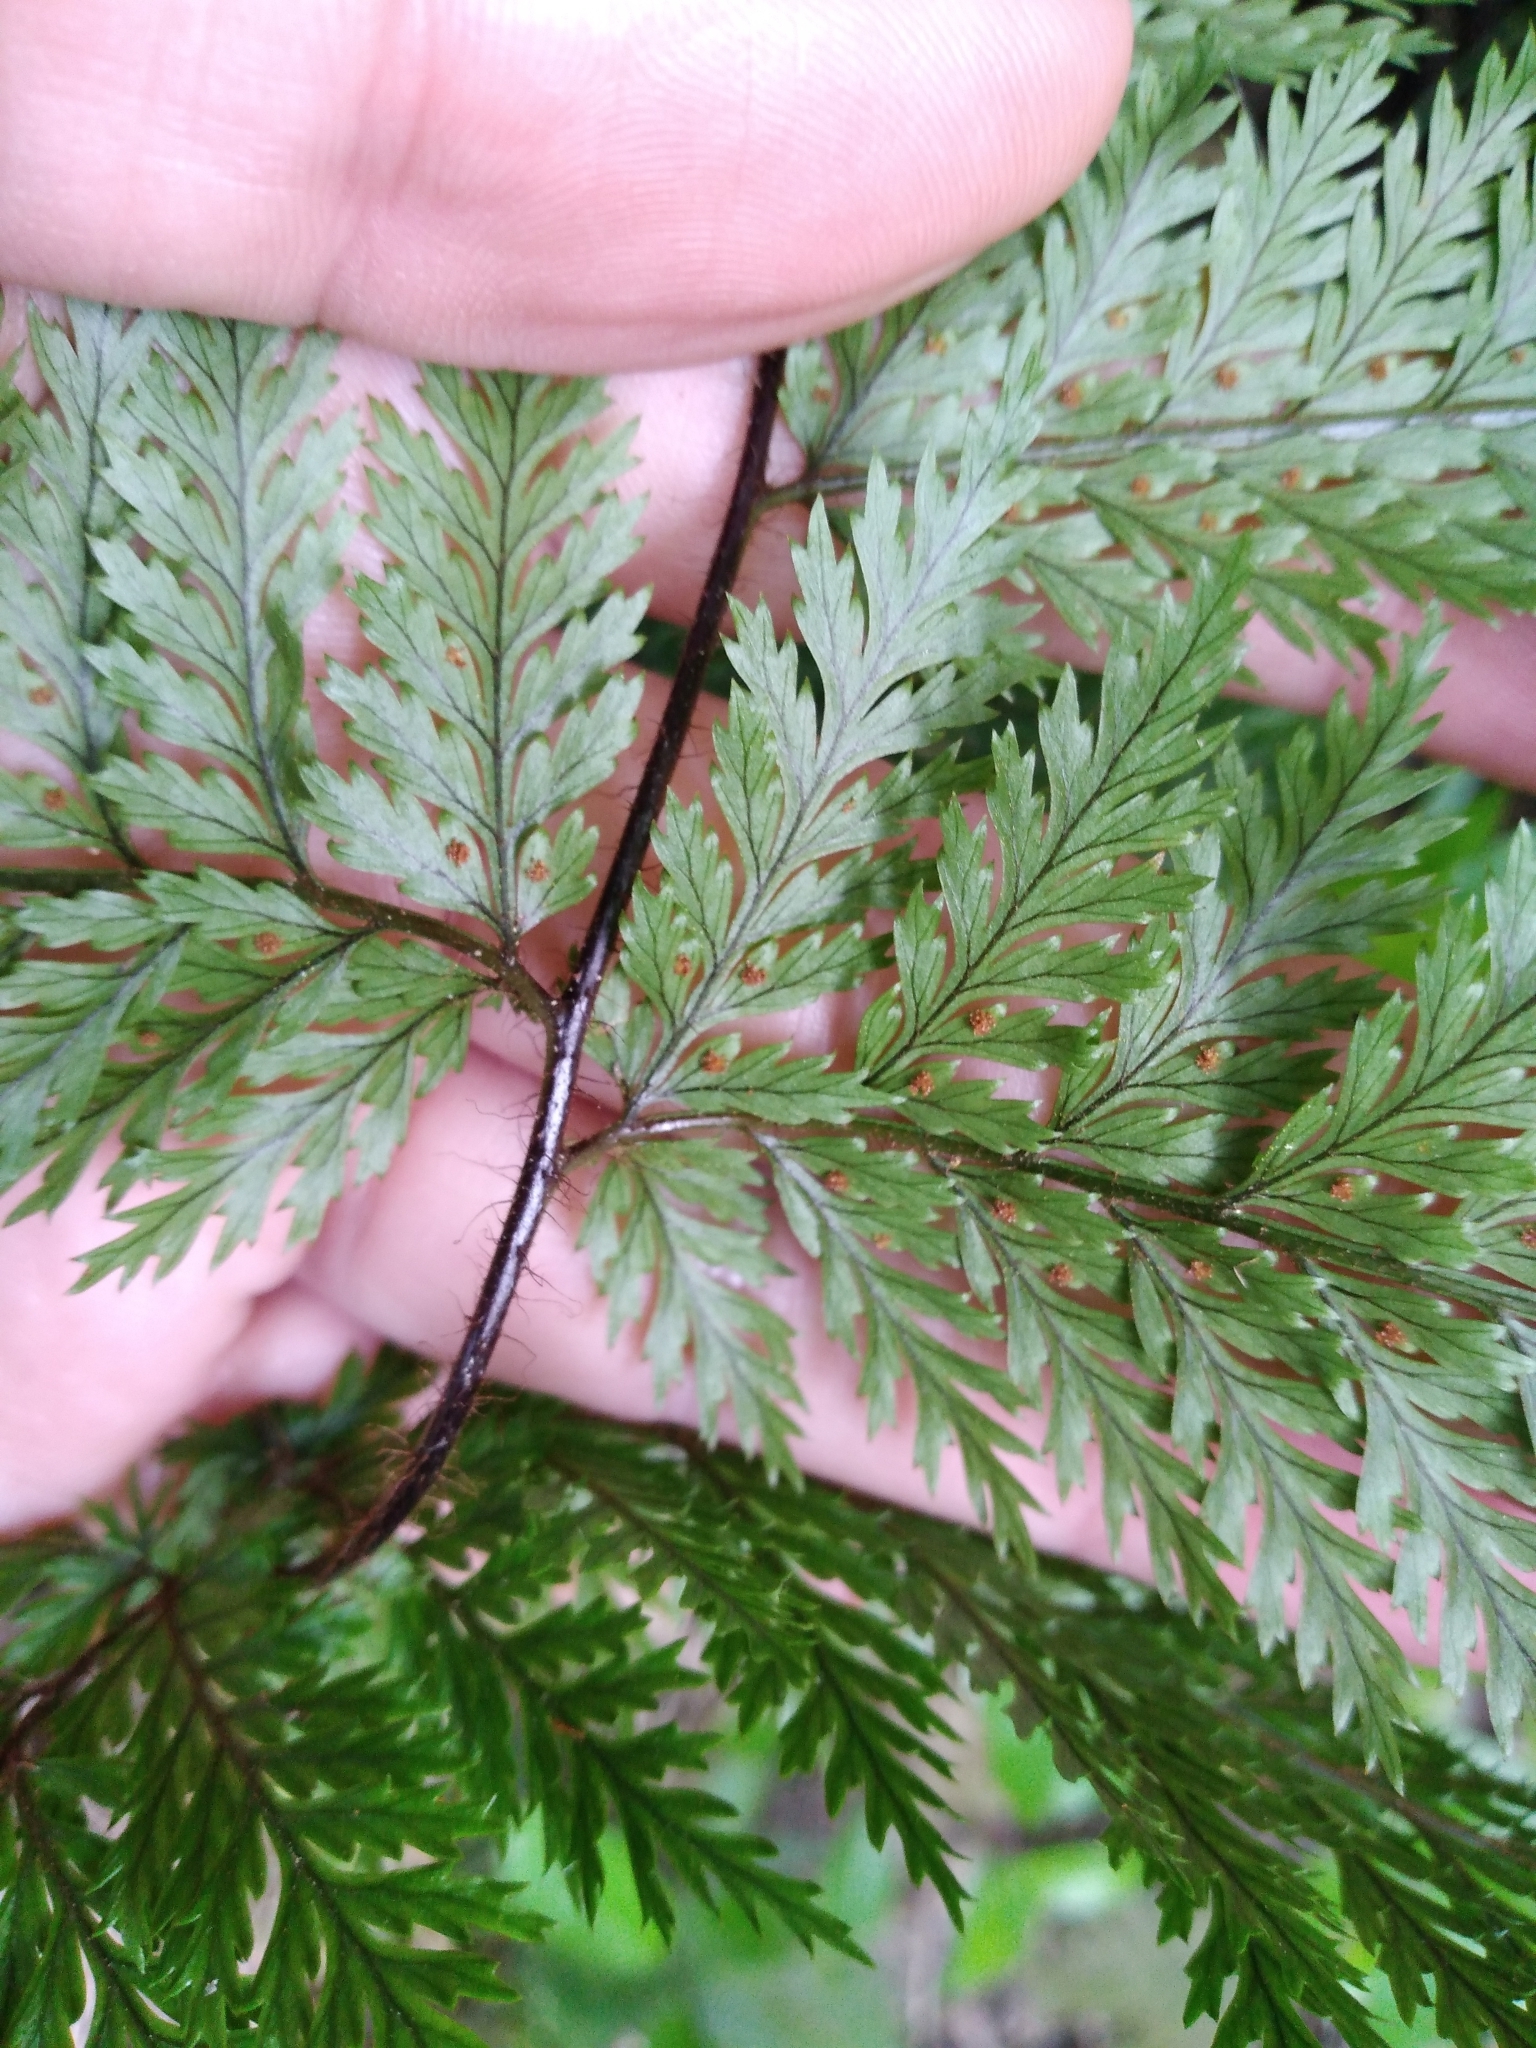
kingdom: Plantae
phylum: Tracheophyta
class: Polypodiopsida
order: Polypodiales
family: Dryopteridaceae
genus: Lastreopsis
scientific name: Lastreopsis hispida
